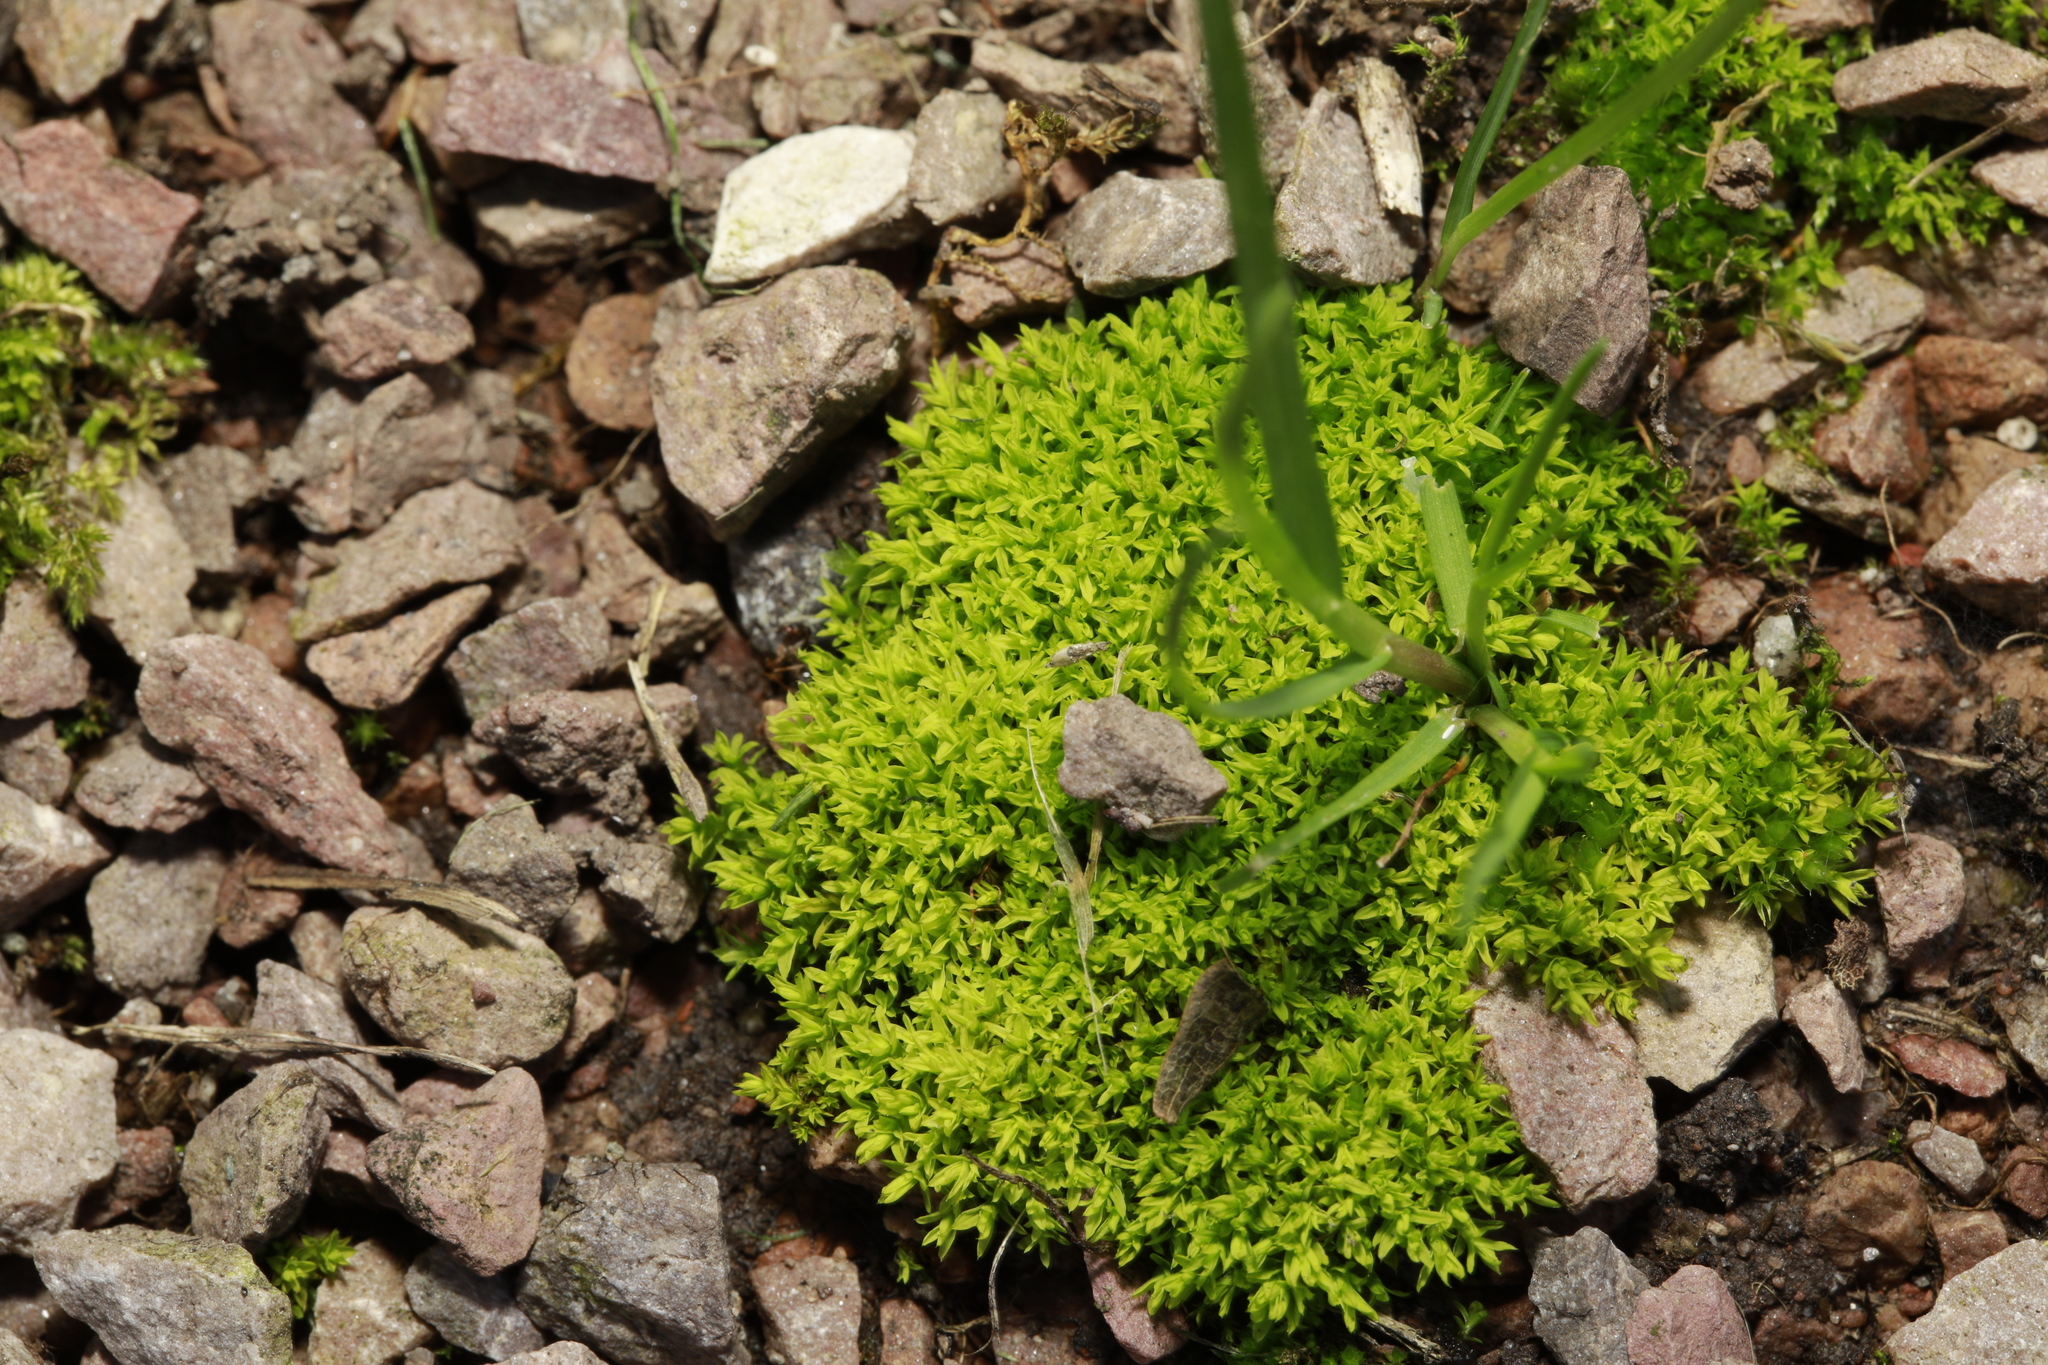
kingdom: Plantae
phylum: Bryophyta
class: Bryopsida
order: Pottiales
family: Pottiaceae
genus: Barbula
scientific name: Barbula unguiculata
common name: Prickly beard moss
